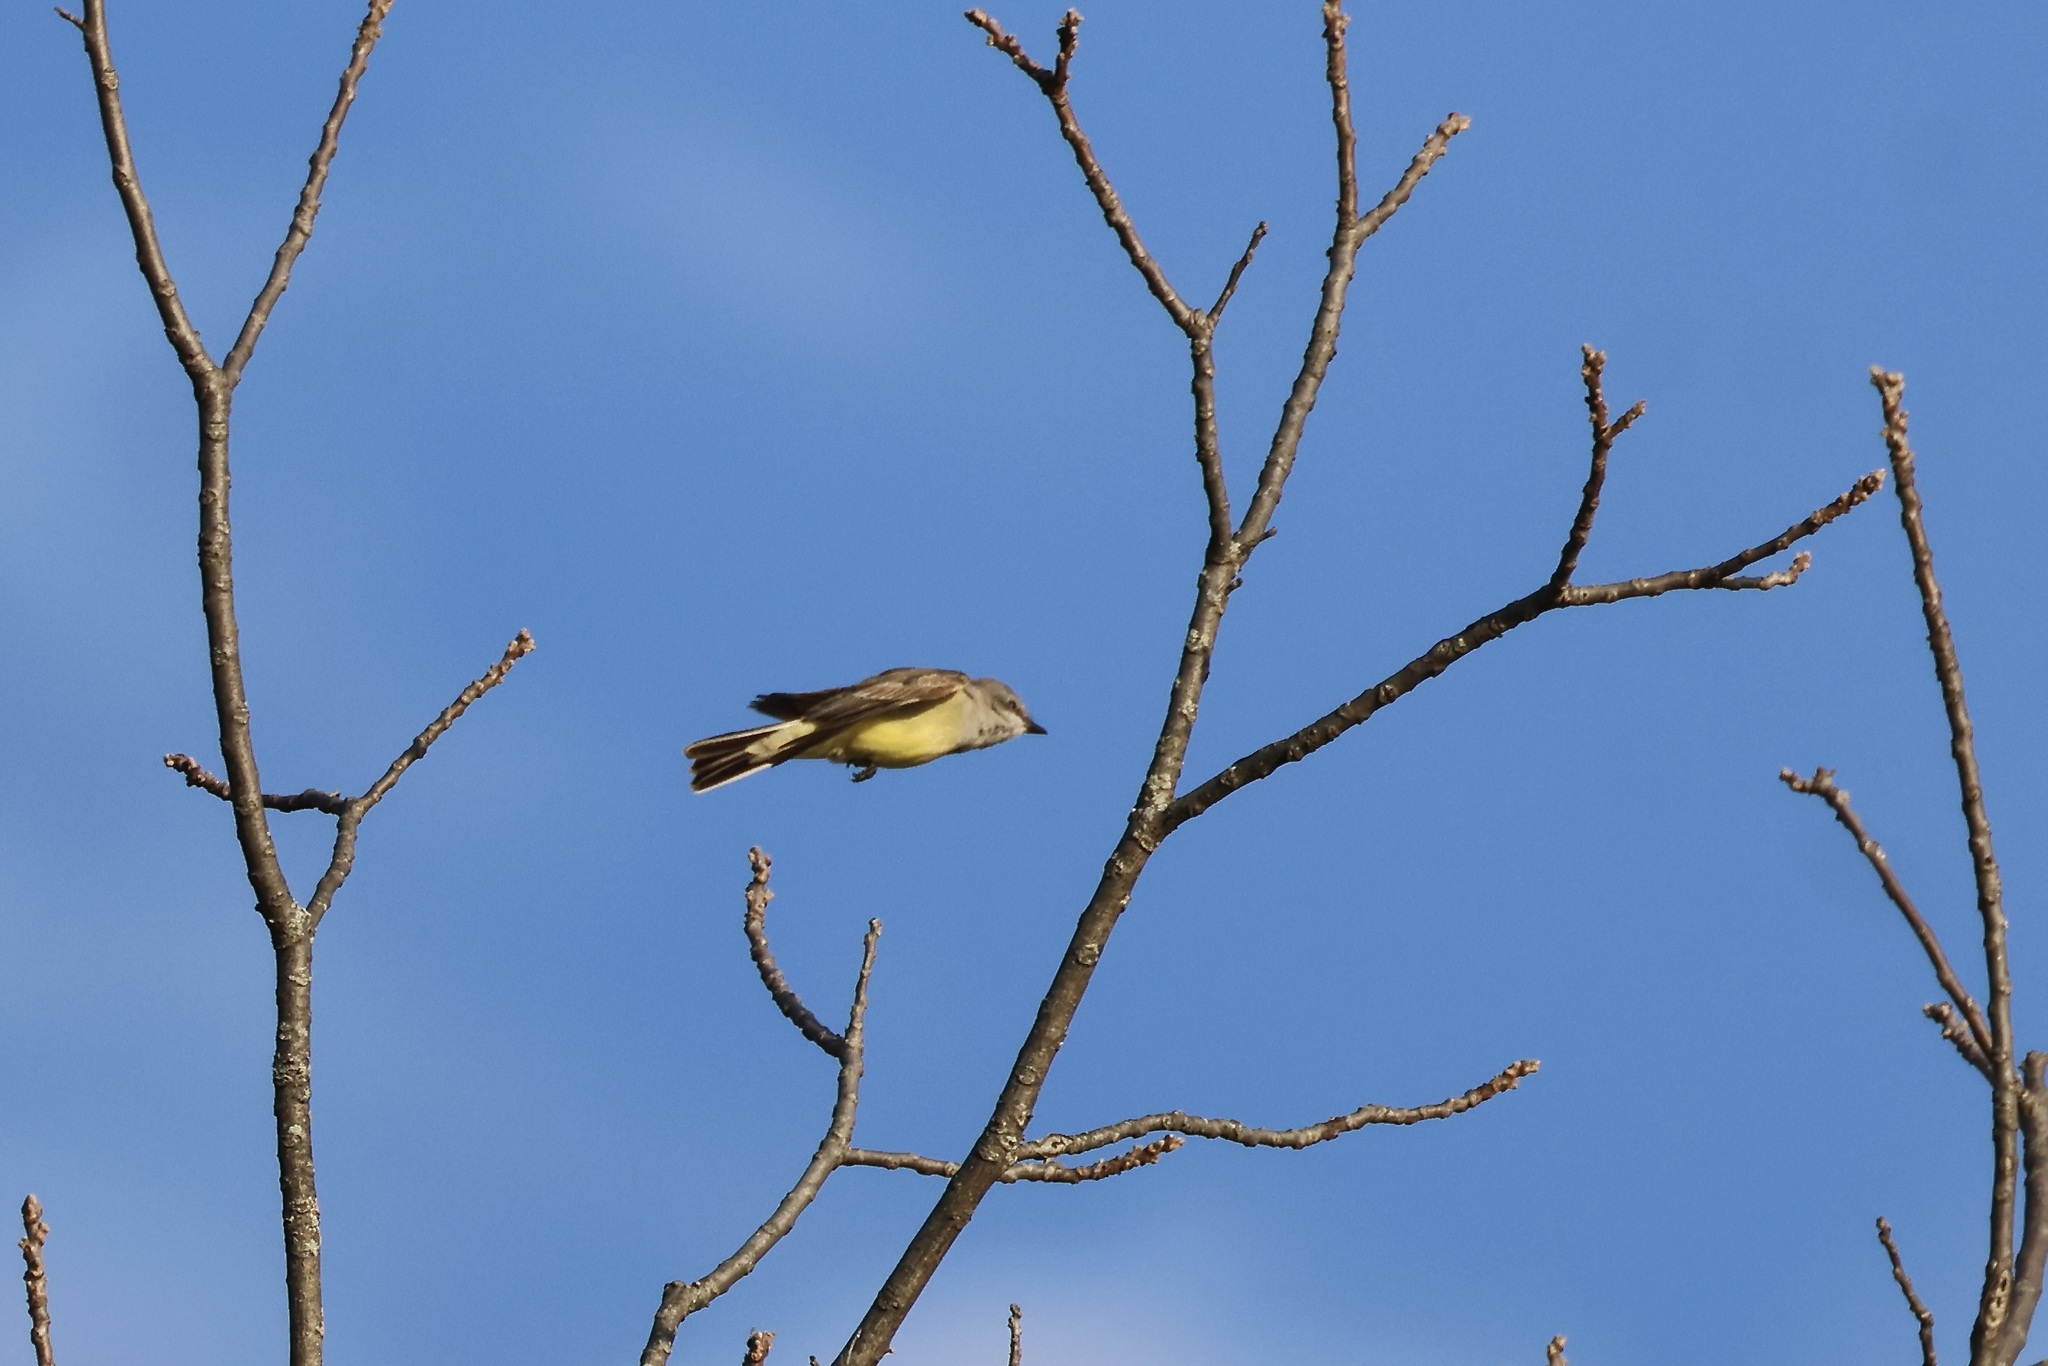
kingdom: Animalia
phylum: Chordata
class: Aves
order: Passeriformes
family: Tyrannidae
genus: Tyrannus
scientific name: Tyrannus verticalis
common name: Western kingbird
